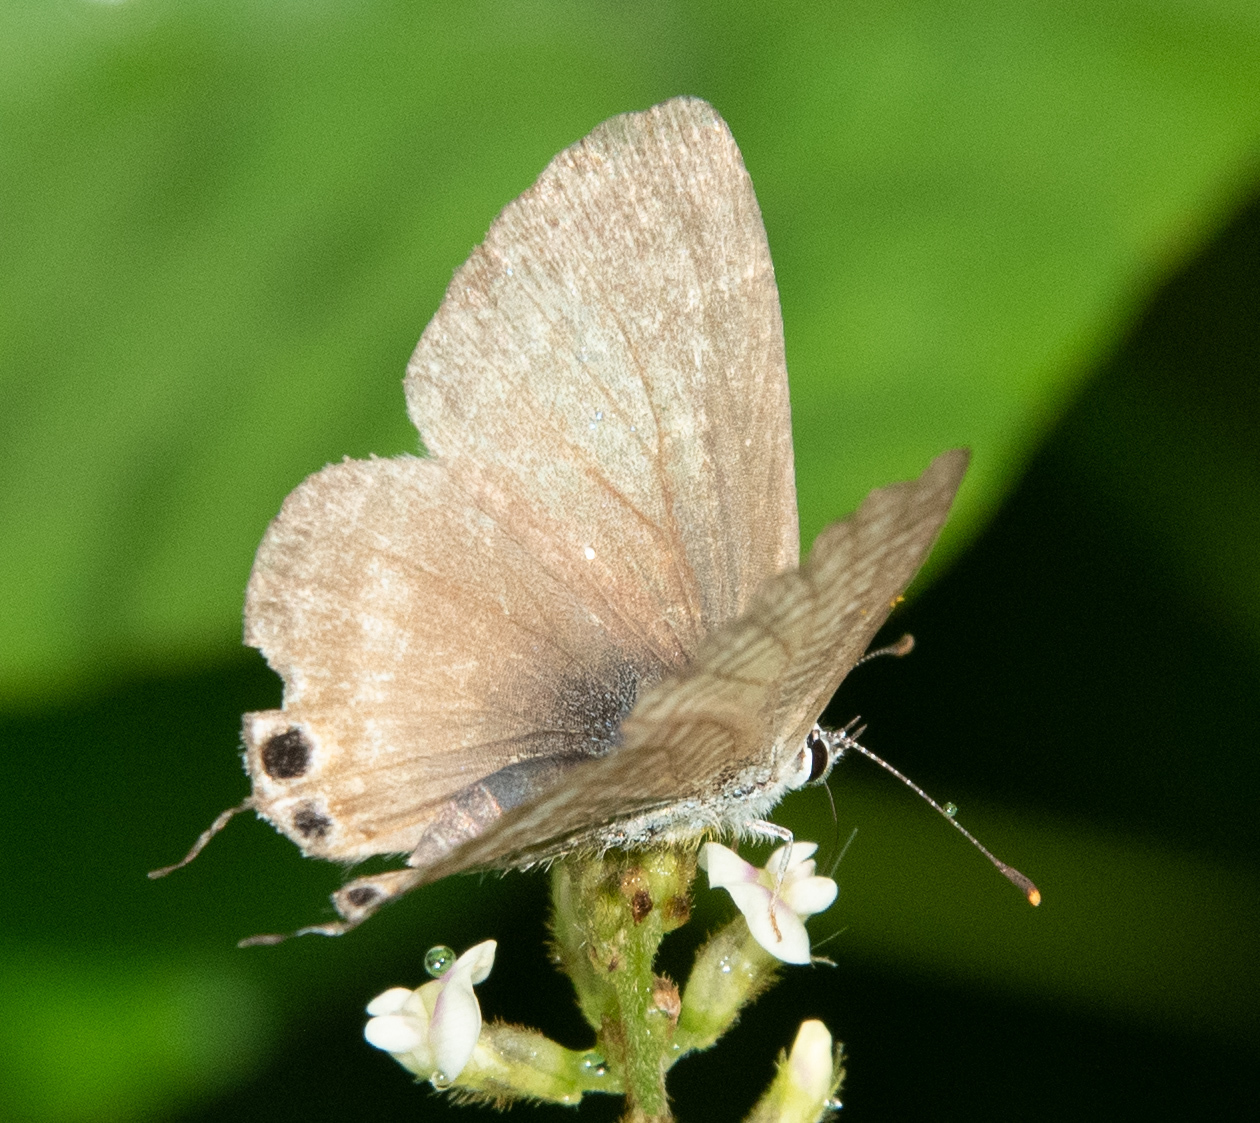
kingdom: Animalia
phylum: Arthropoda
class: Insecta
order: Lepidoptera
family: Lycaenidae
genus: Lampides
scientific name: Lampides boeticus
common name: Long-tailed blue
